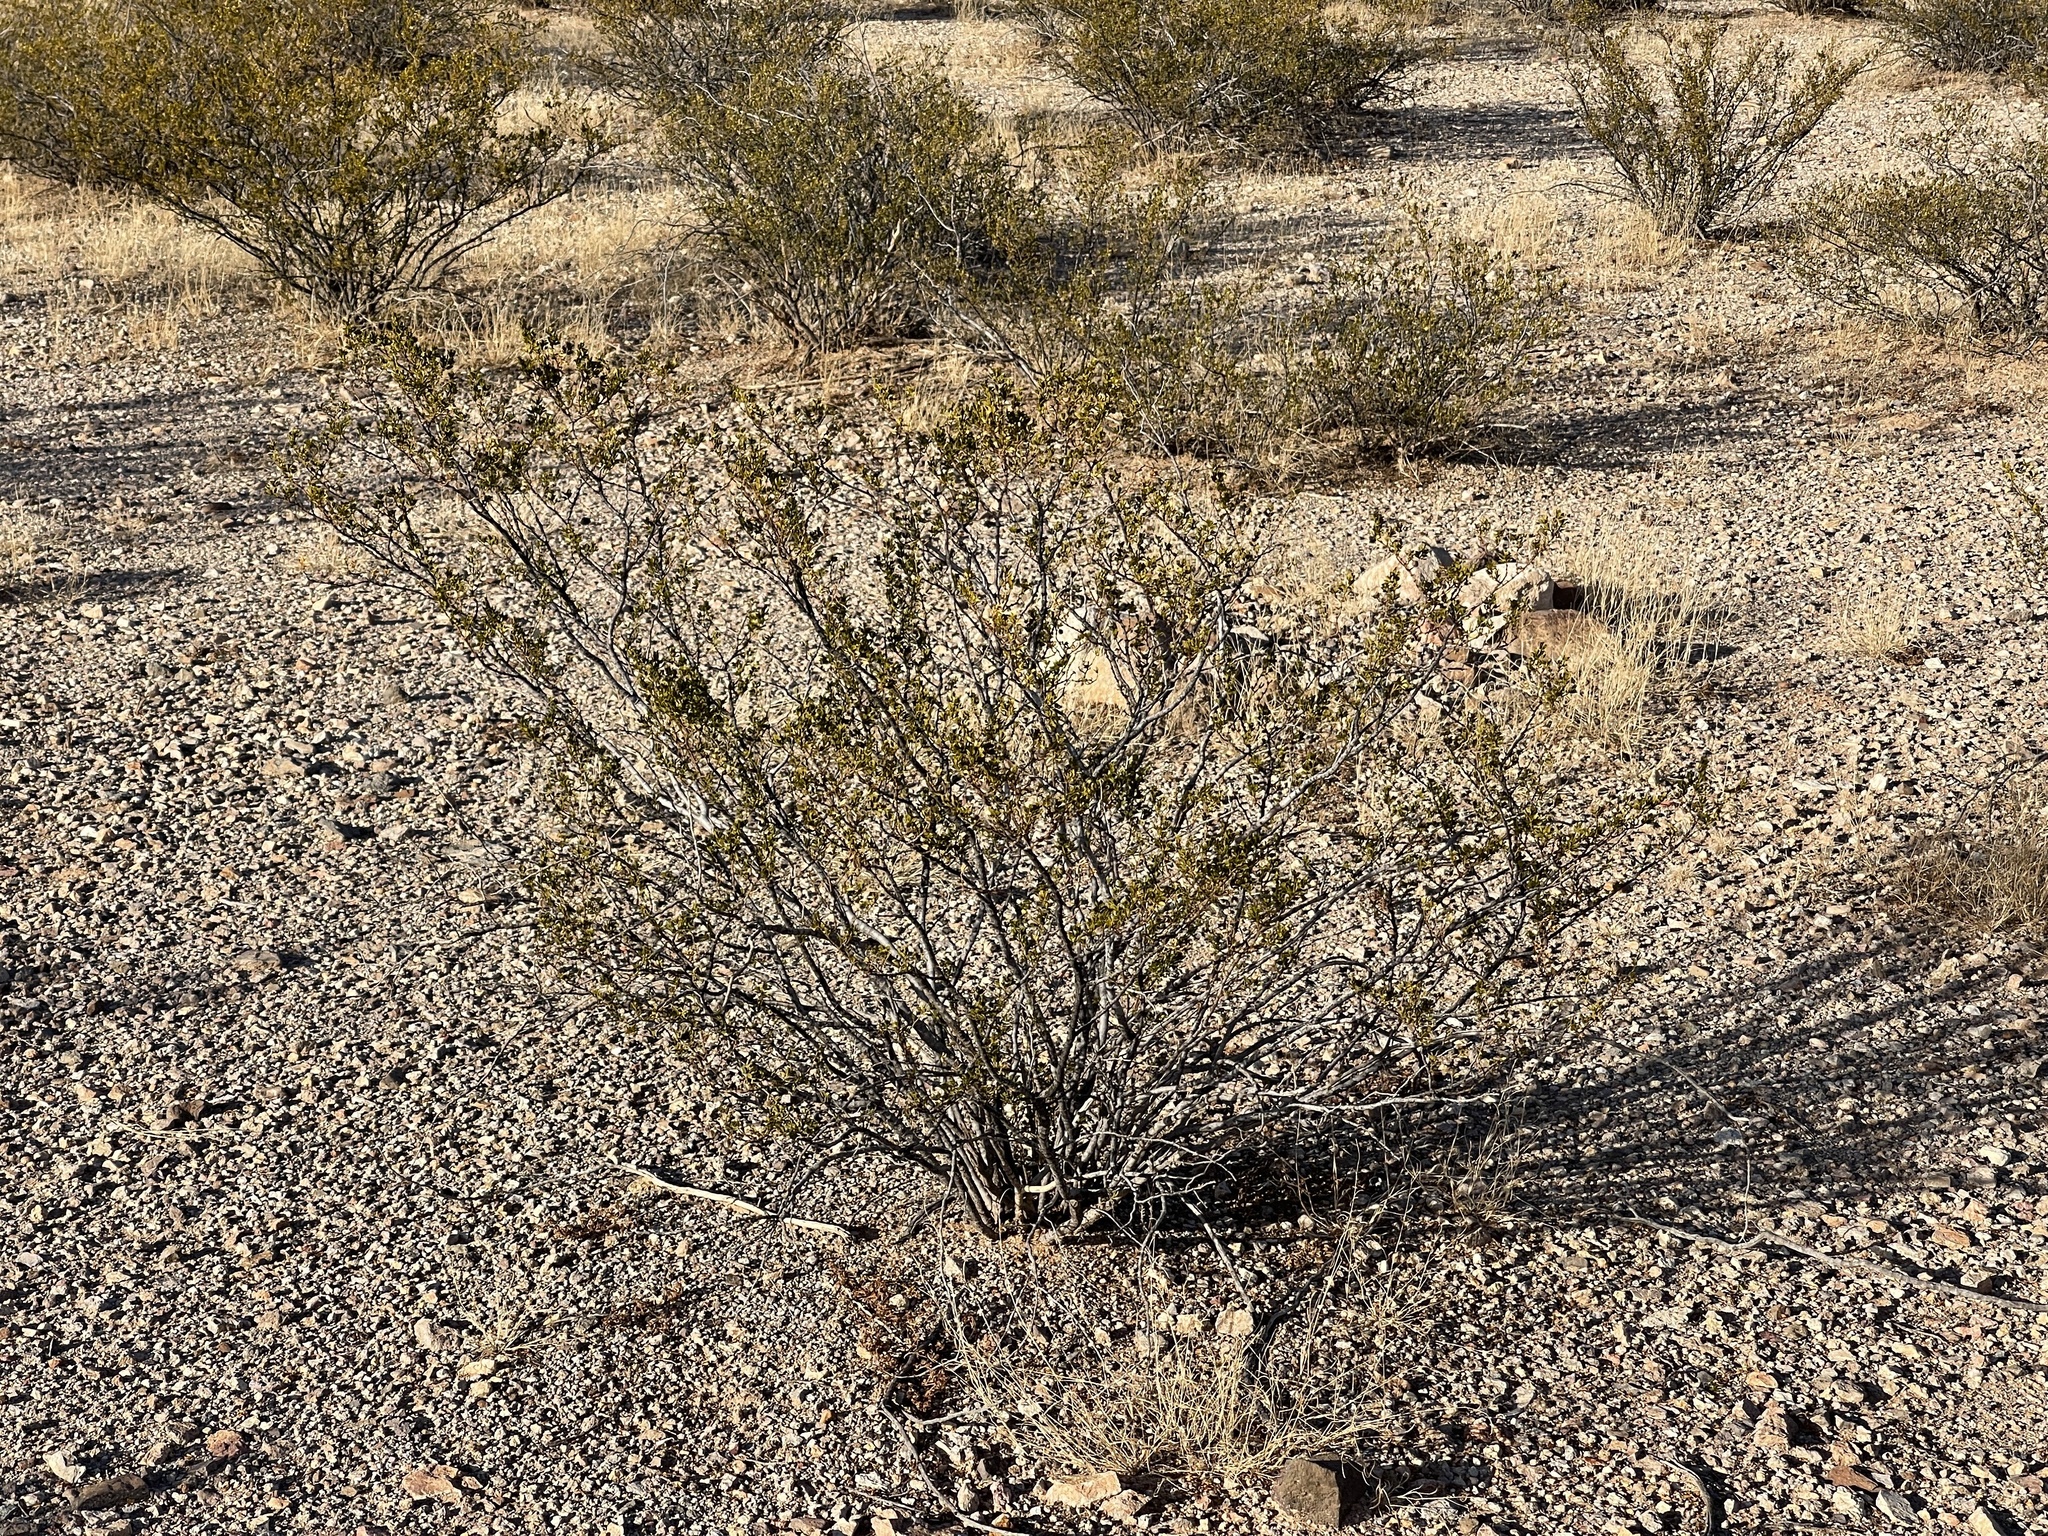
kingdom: Plantae
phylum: Tracheophyta
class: Magnoliopsida
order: Zygophyllales
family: Zygophyllaceae
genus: Larrea
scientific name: Larrea tridentata
